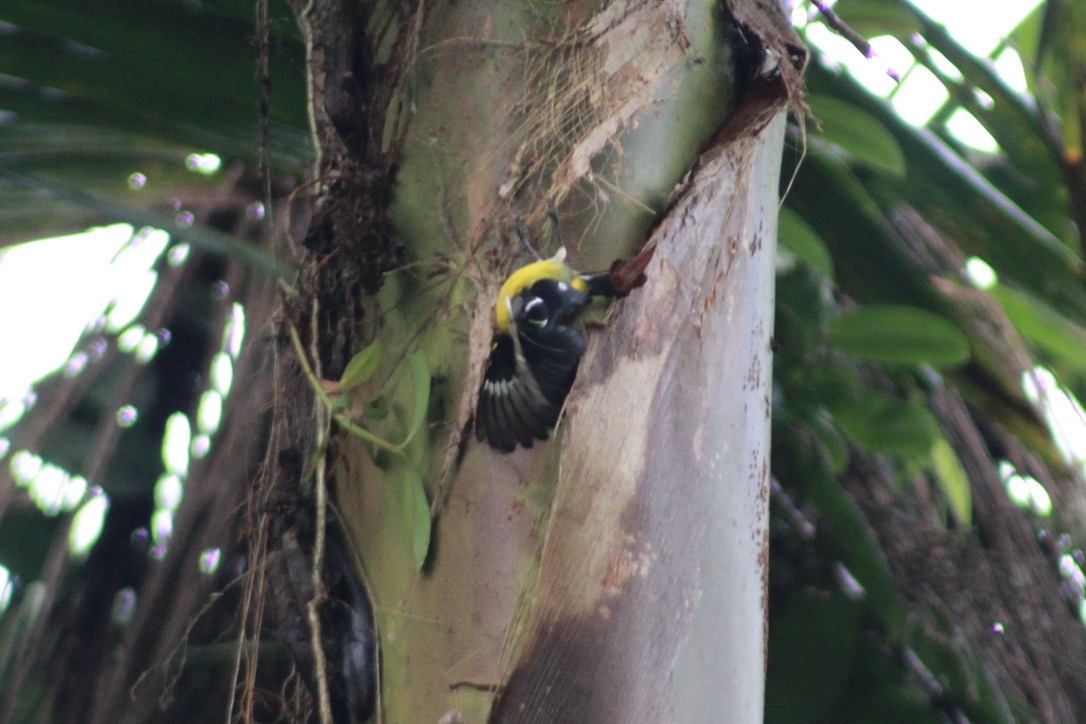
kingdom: Animalia
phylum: Chordata
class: Aves
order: Passeriformes
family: Thraupidae
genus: Coereba
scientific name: Coereba flaveola
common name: Bananaquit
